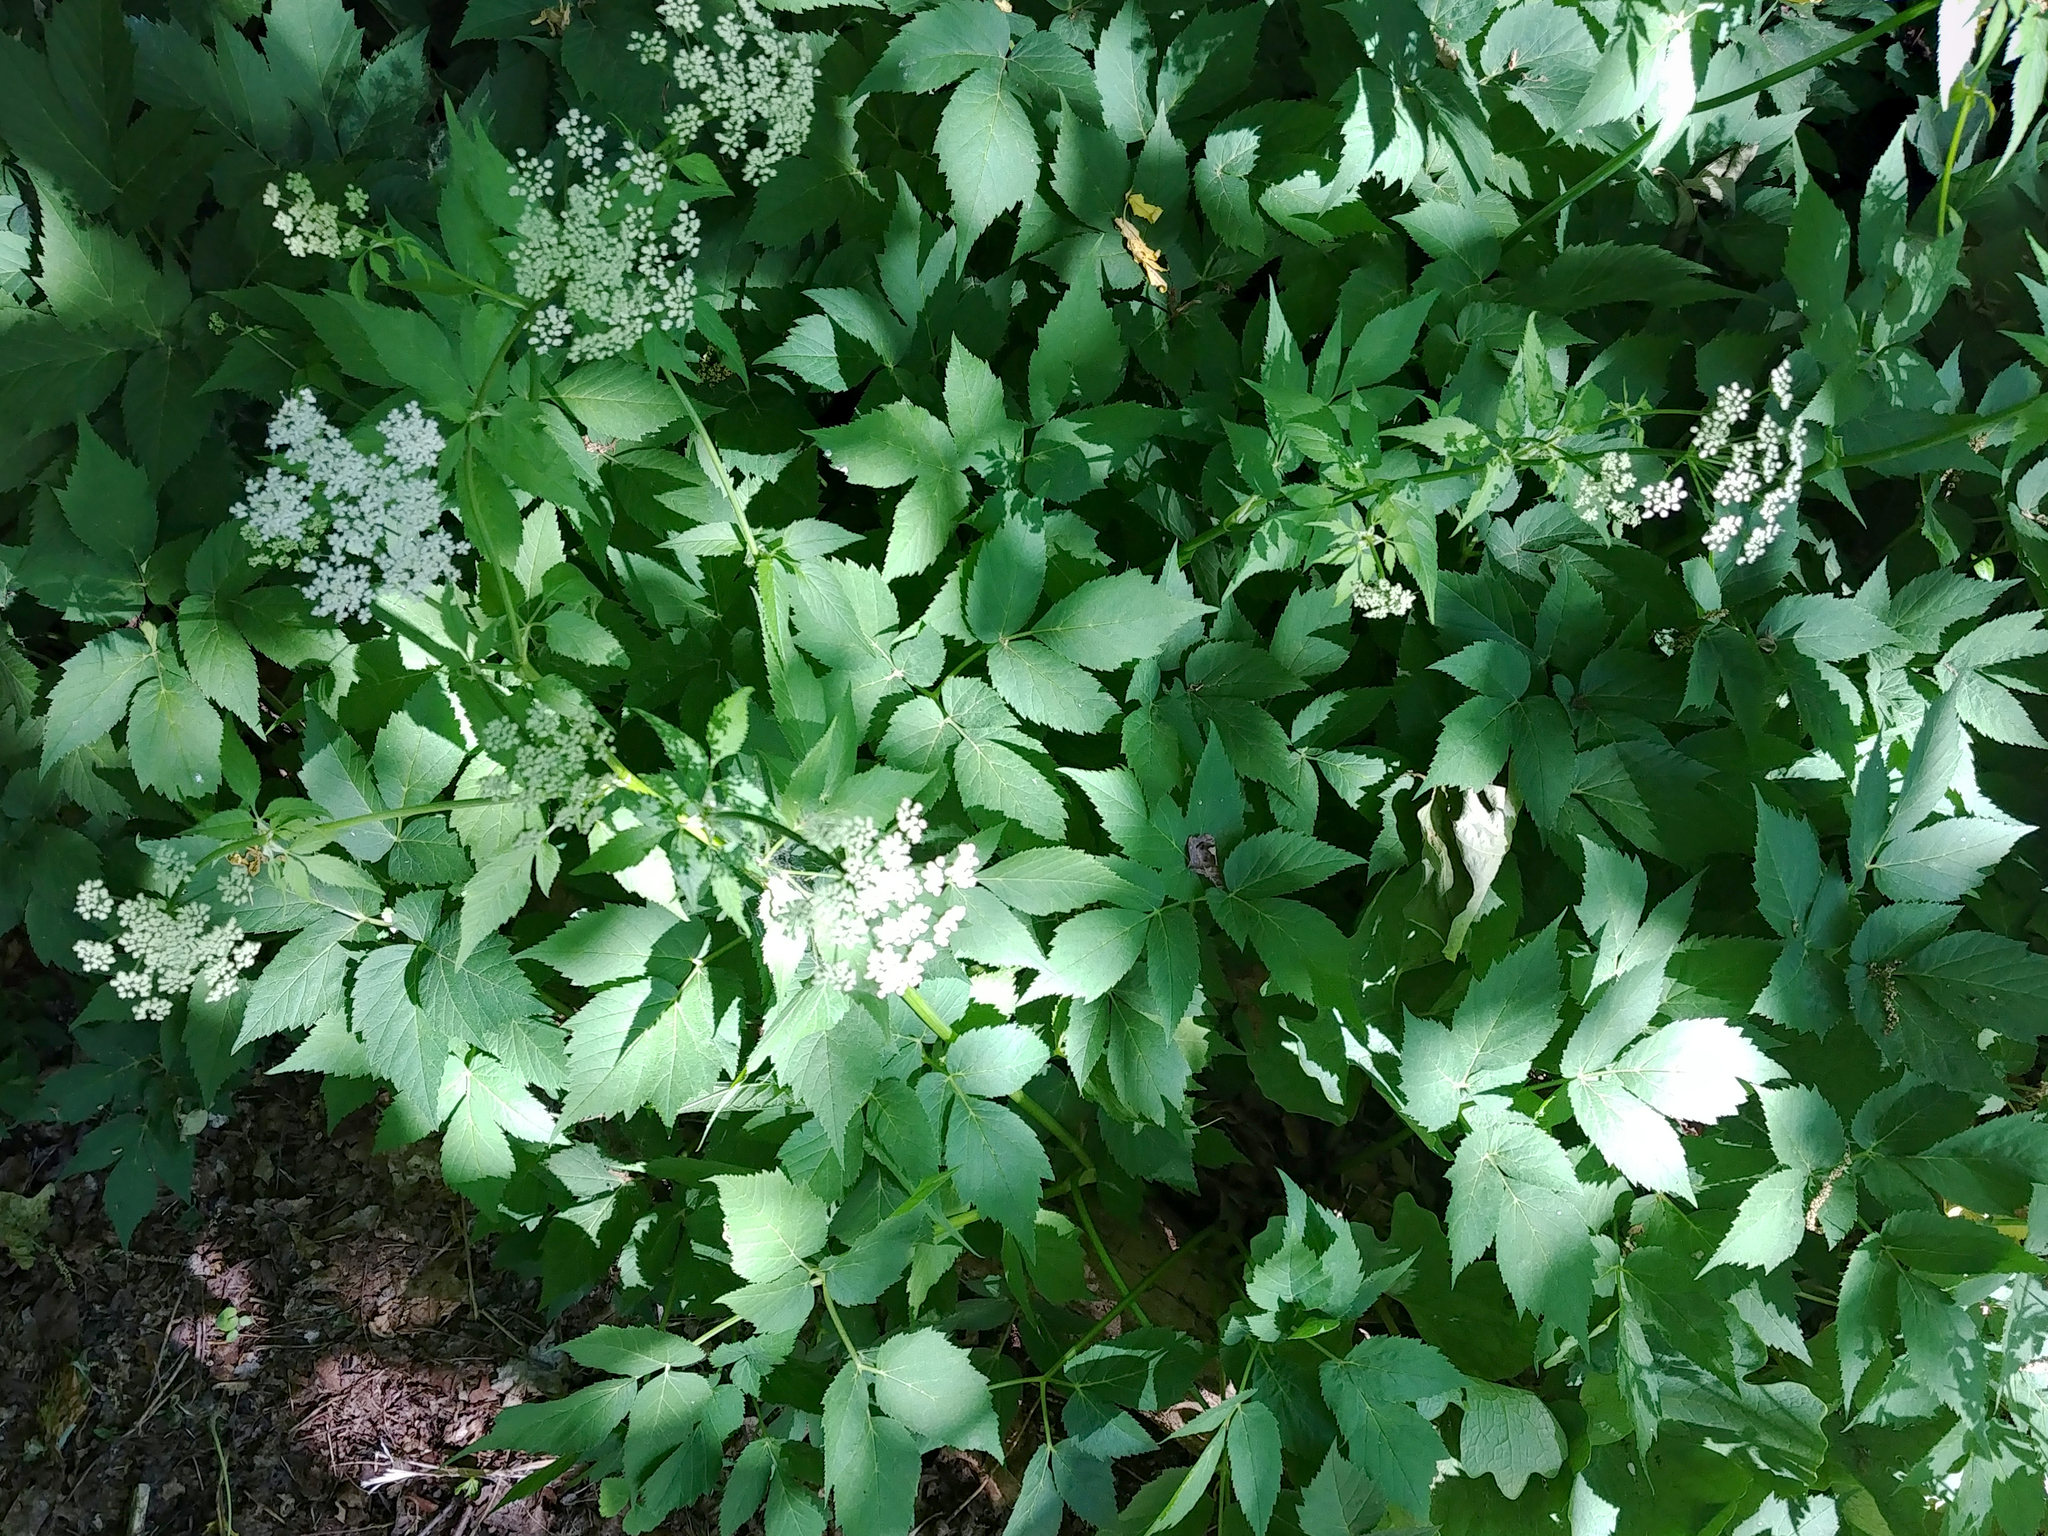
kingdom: Plantae
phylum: Tracheophyta
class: Magnoliopsida
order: Apiales
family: Apiaceae
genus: Aegopodium
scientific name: Aegopodium podagraria
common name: Ground-elder
